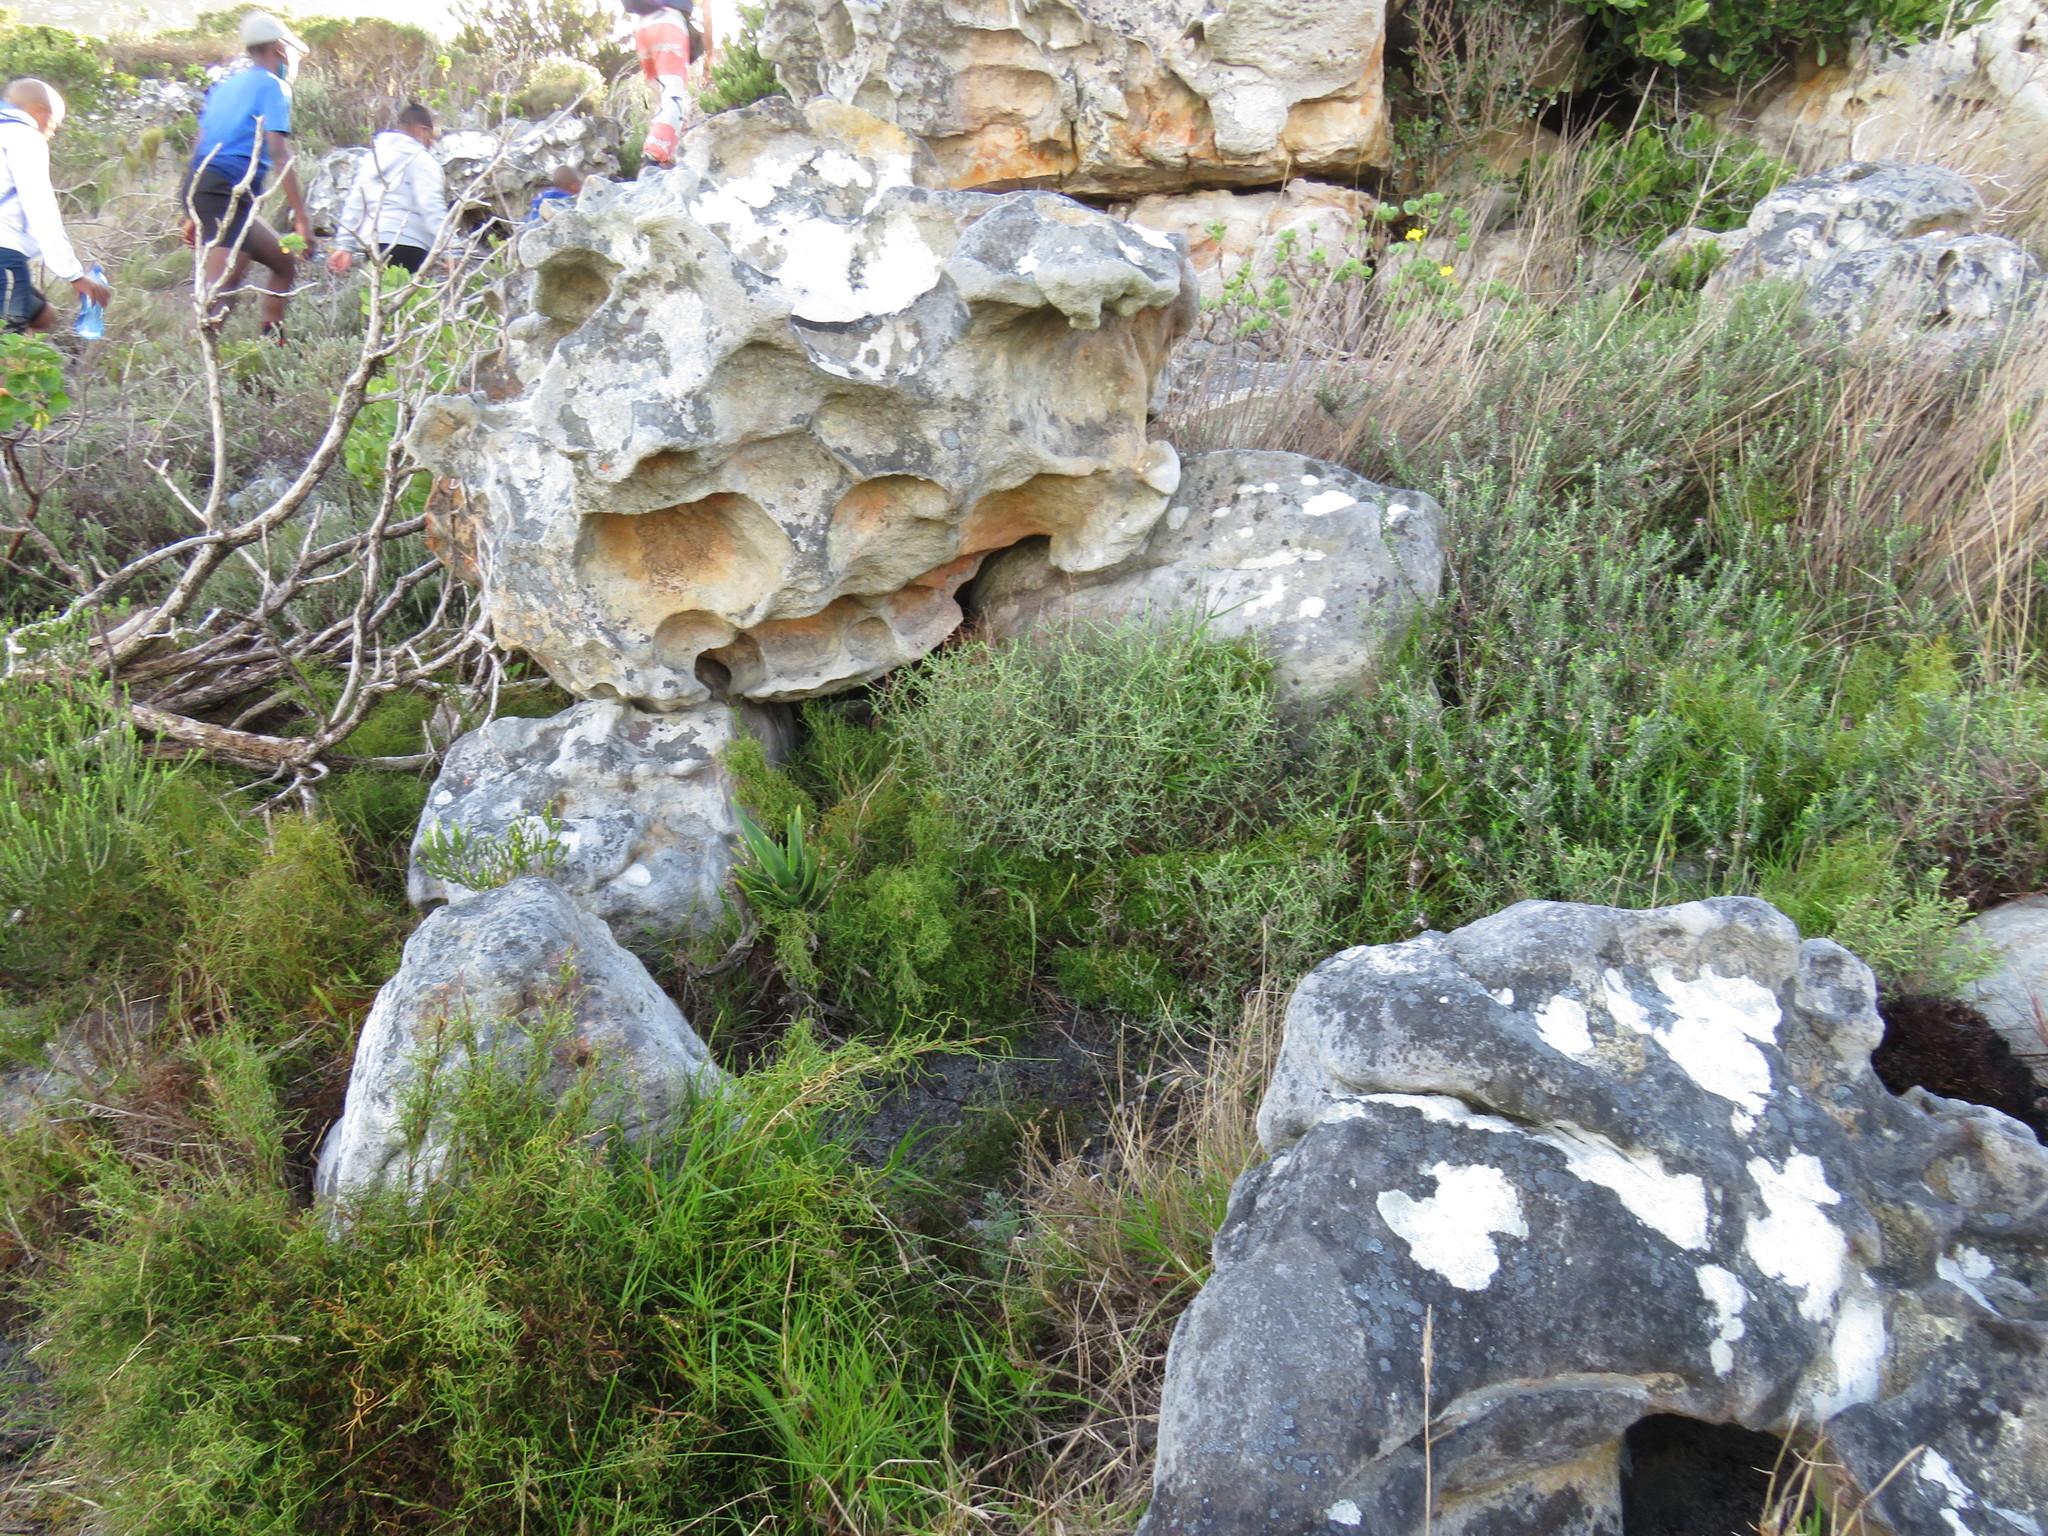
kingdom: Plantae
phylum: Tracheophyta
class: Liliopsida
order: Asparagales
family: Asphodelaceae
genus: Aloiampelos
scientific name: Aloiampelos commixta
